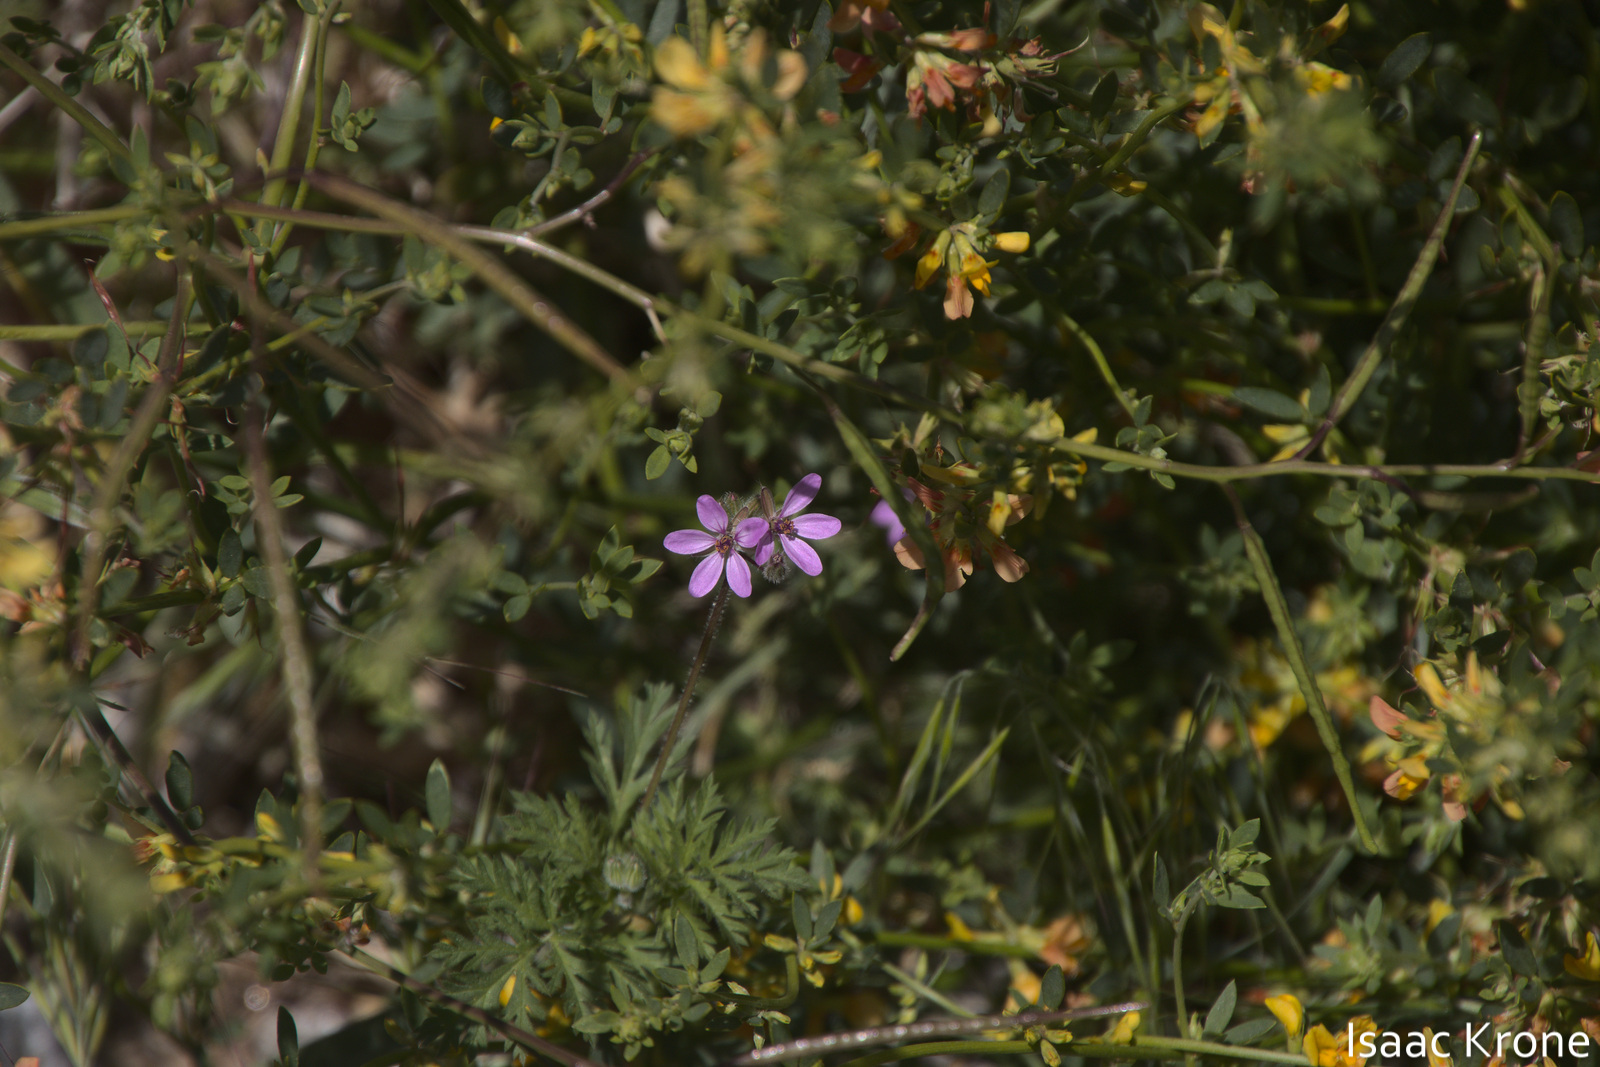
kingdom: Plantae
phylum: Tracheophyta
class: Magnoliopsida
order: Geraniales
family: Geraniaceae
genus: Erodium
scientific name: Erodium cicutarium
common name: Common stork's-bill
